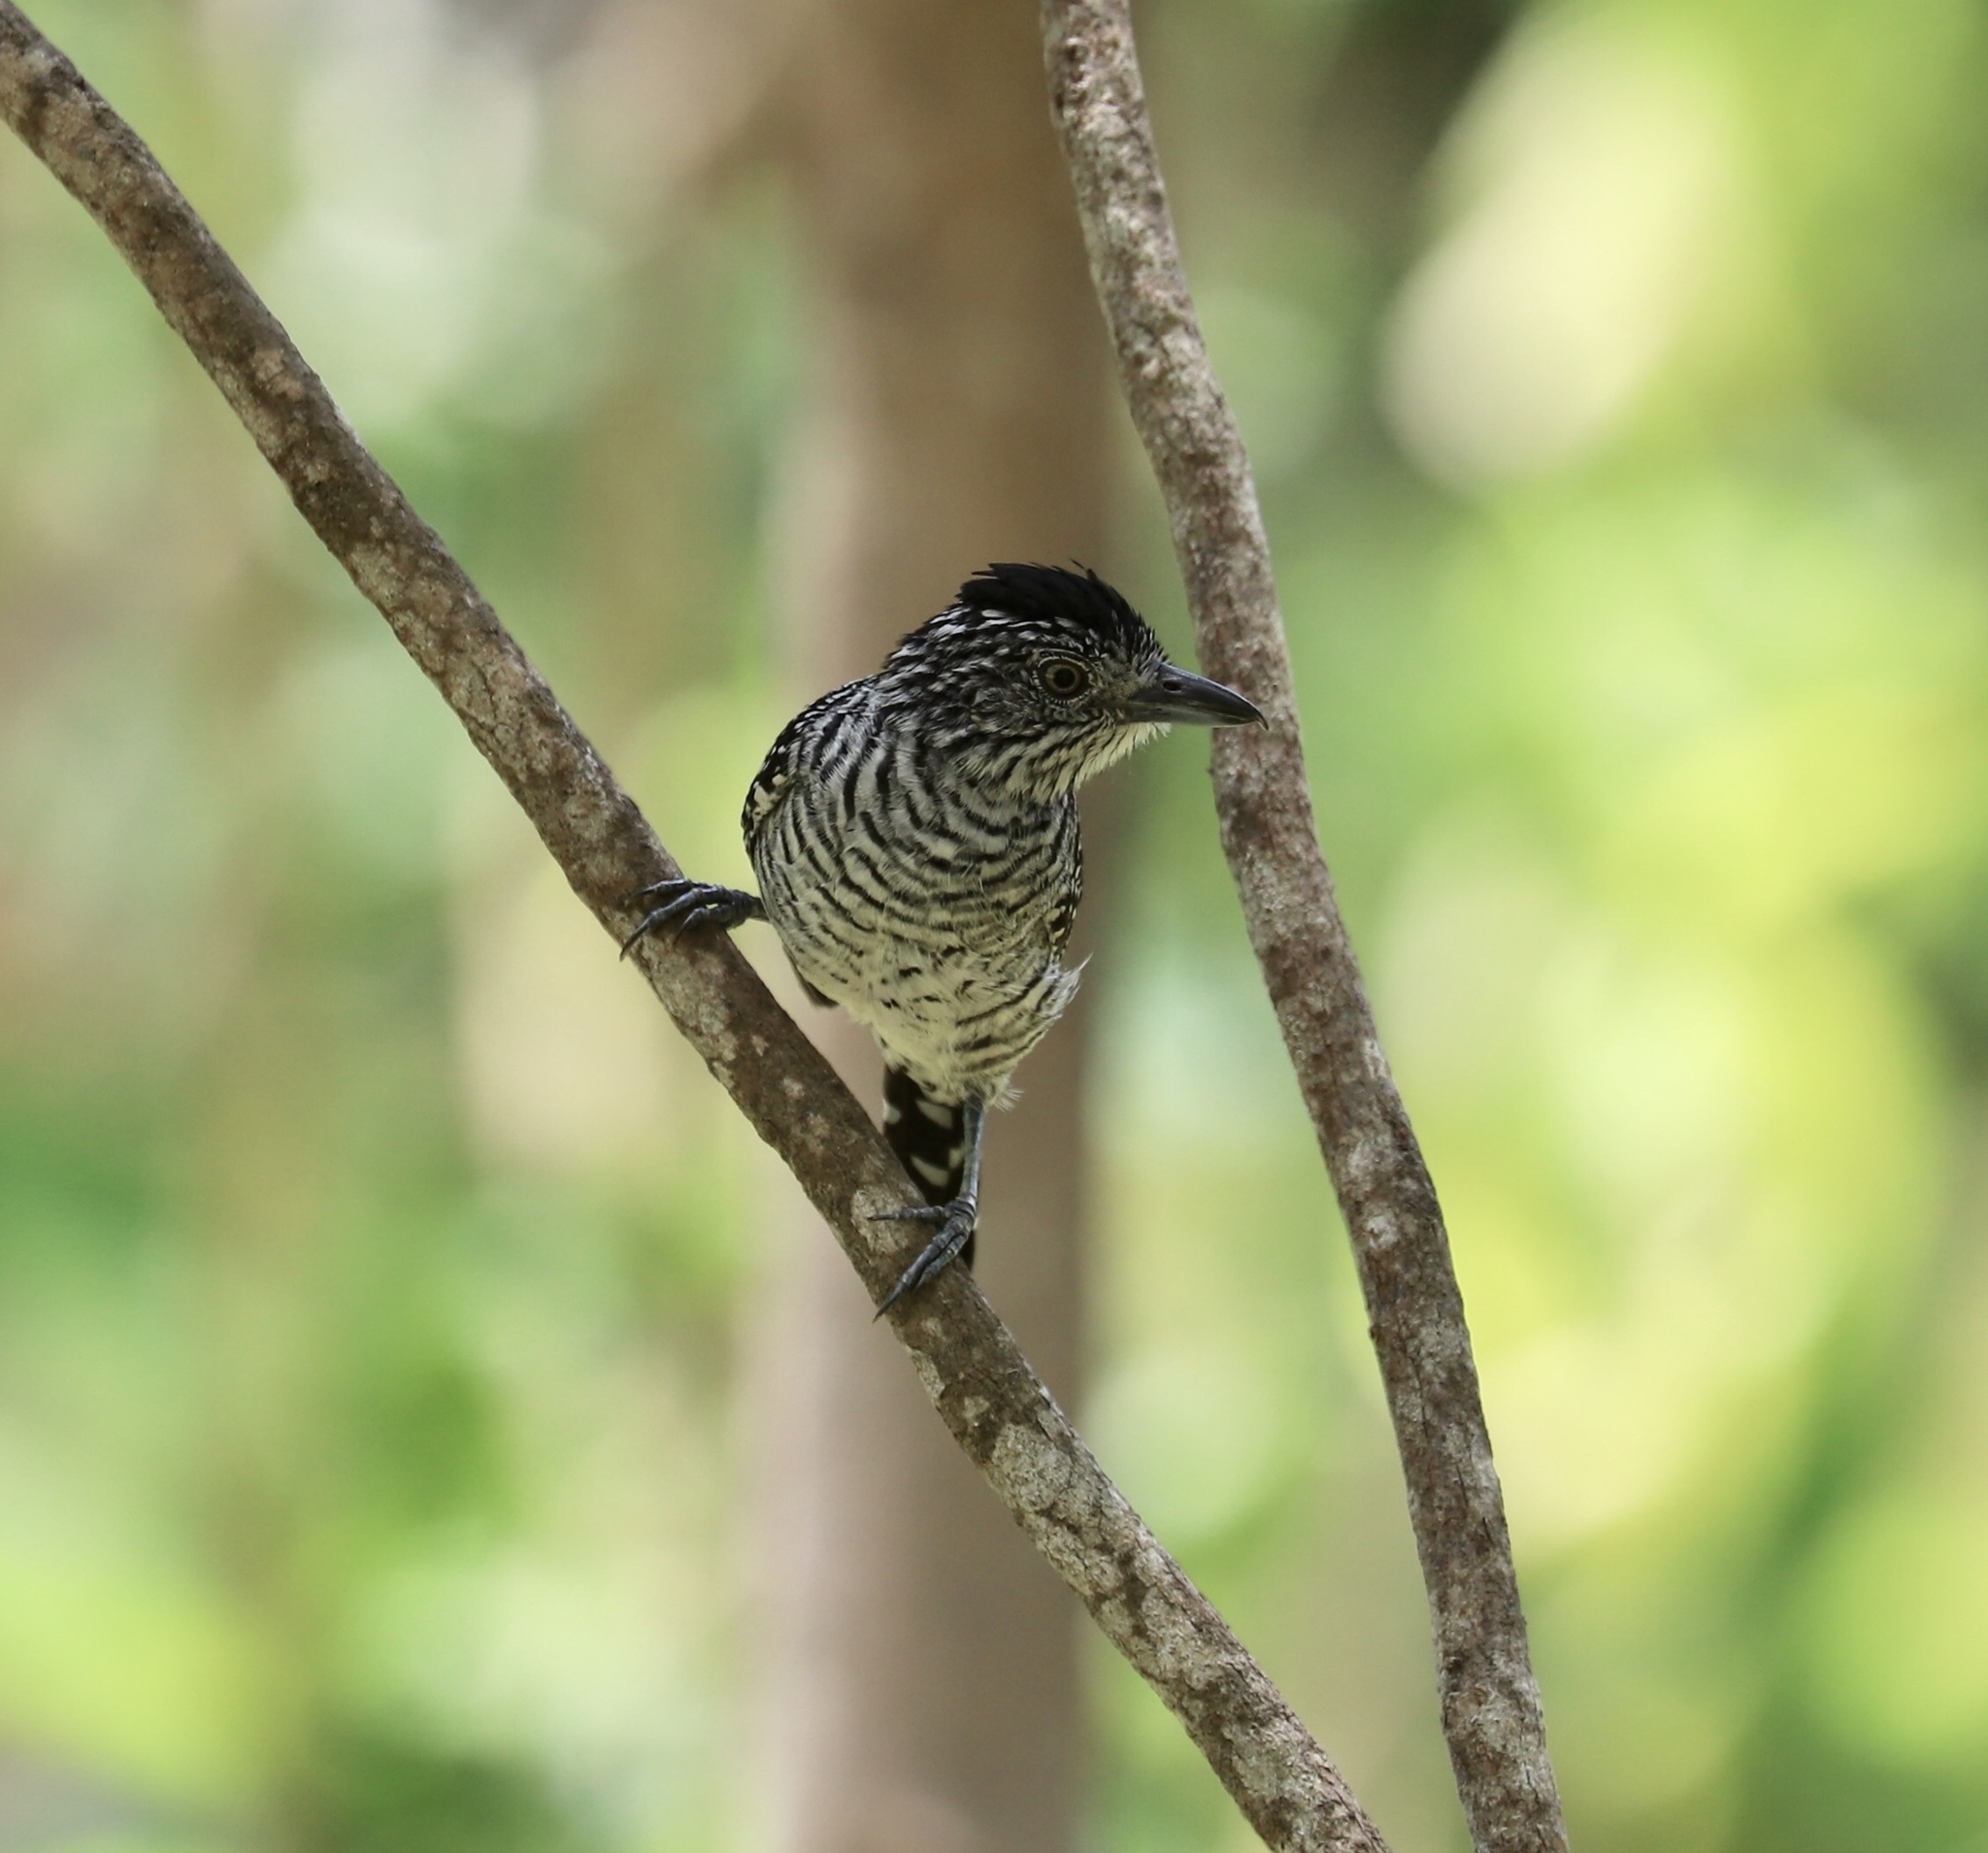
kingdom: Animalia
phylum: Chordata
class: Aves
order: Passeriformes
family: Thamnophilidae
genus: Thamnophilus
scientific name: Thamnophilus doliatus
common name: Barred antshrike
